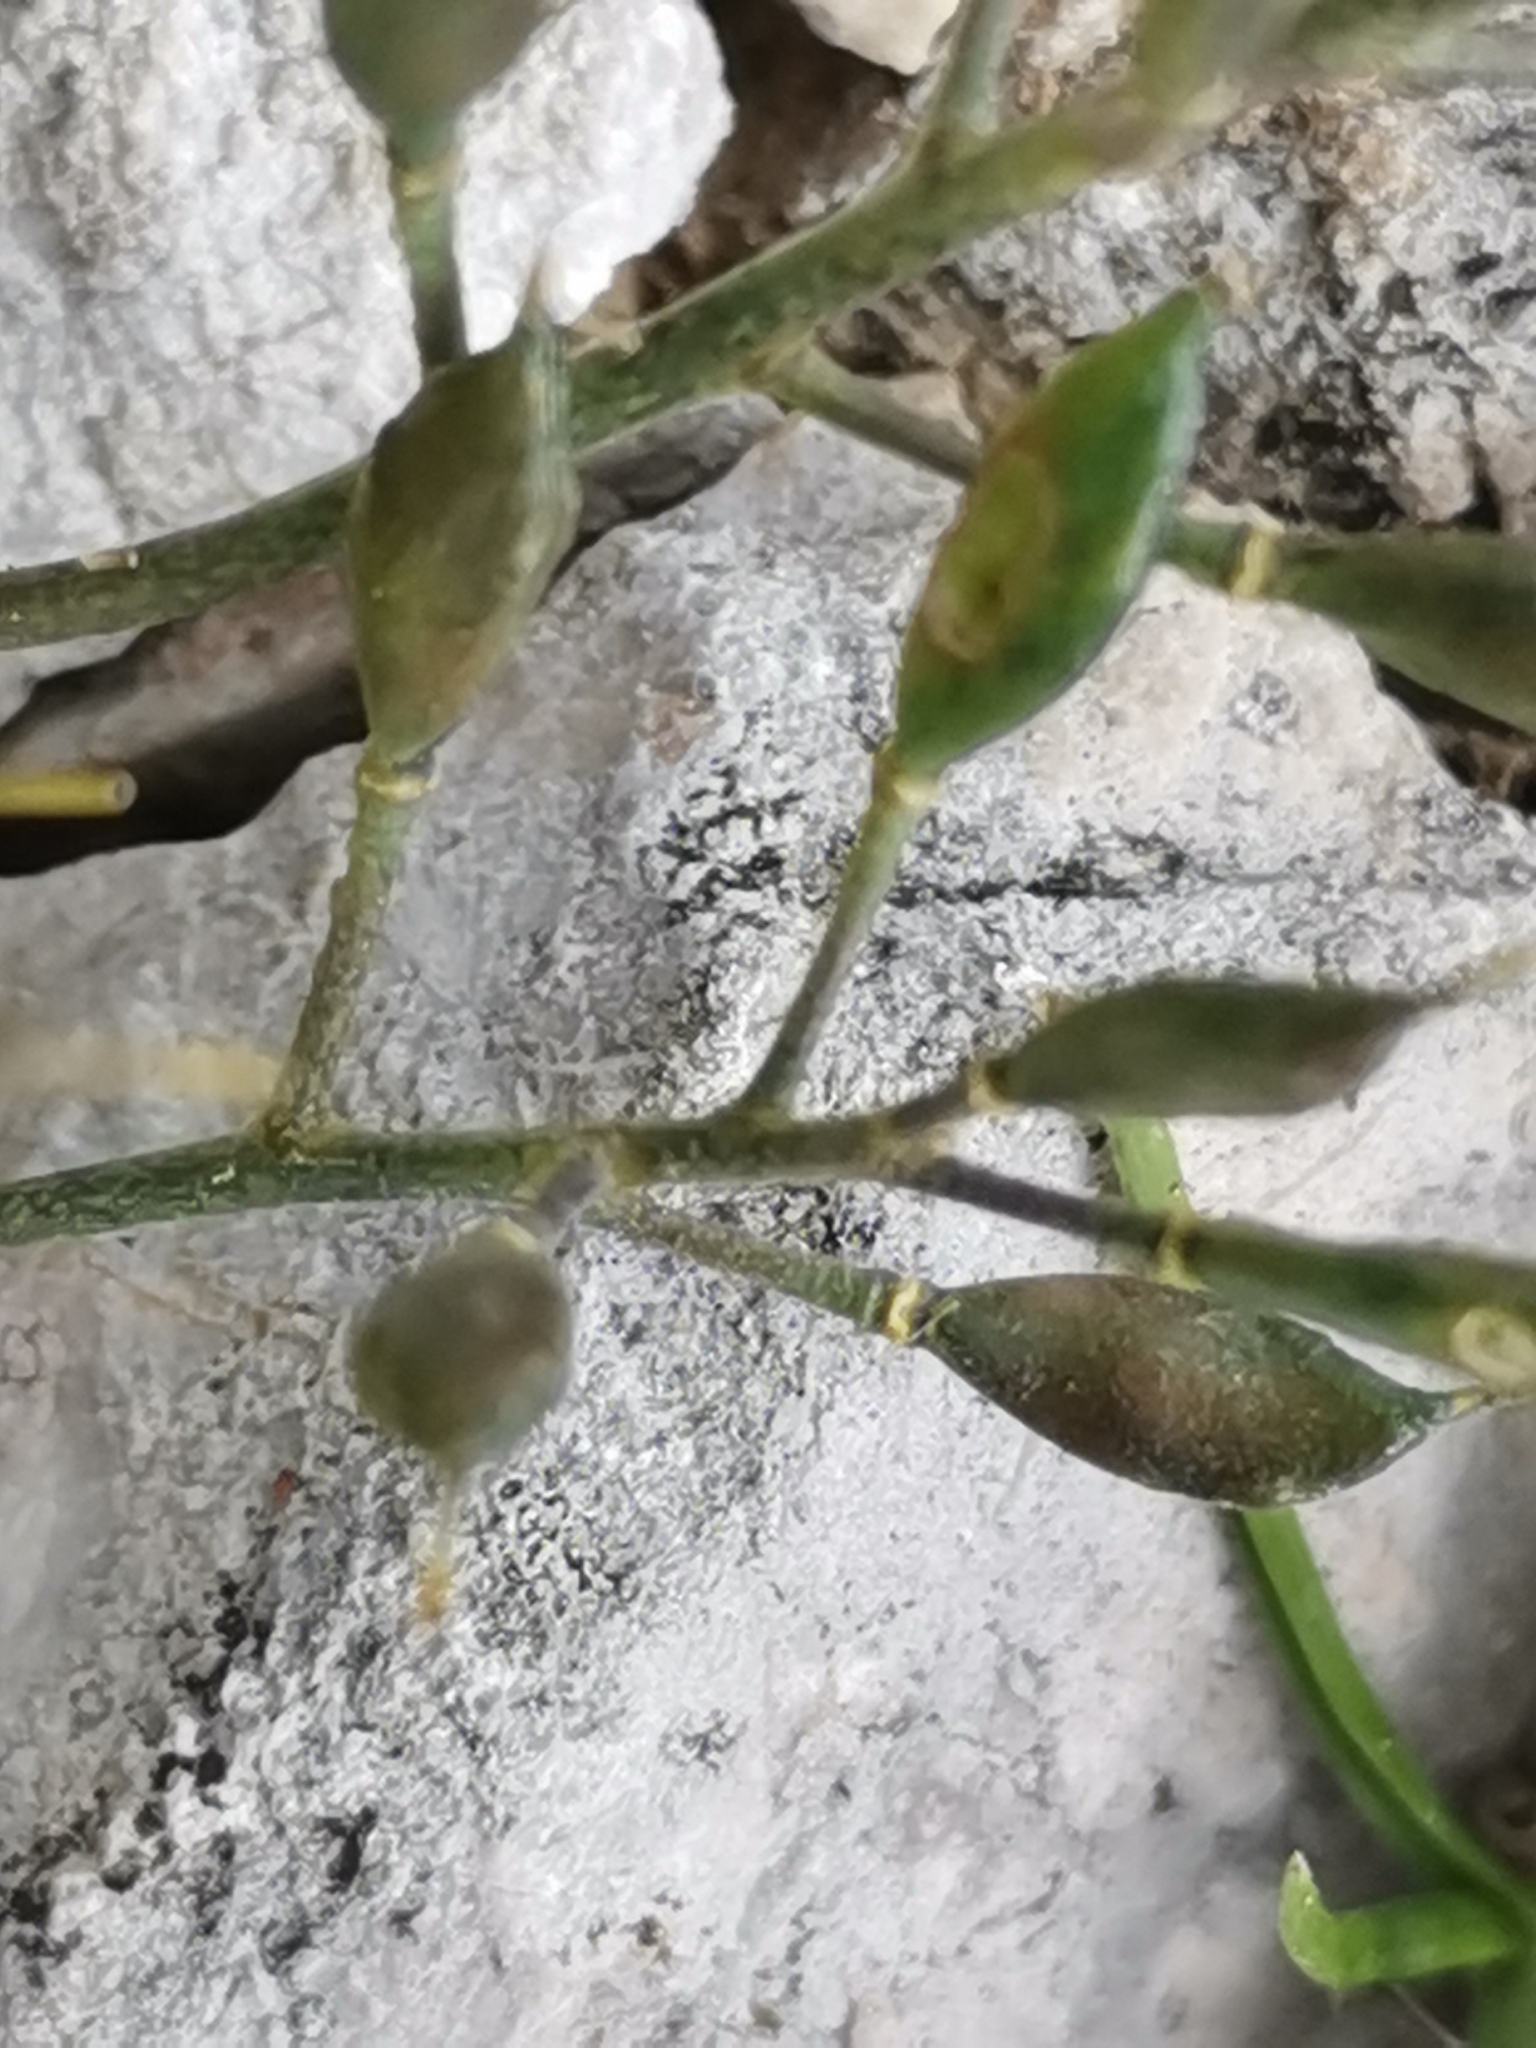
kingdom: Plantae
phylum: Tracheophyta
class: Magnoliopsida
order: Brassicales
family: Brassicaceae
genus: Draba
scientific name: Draba aizoides
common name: Yellow whitlowgrass
